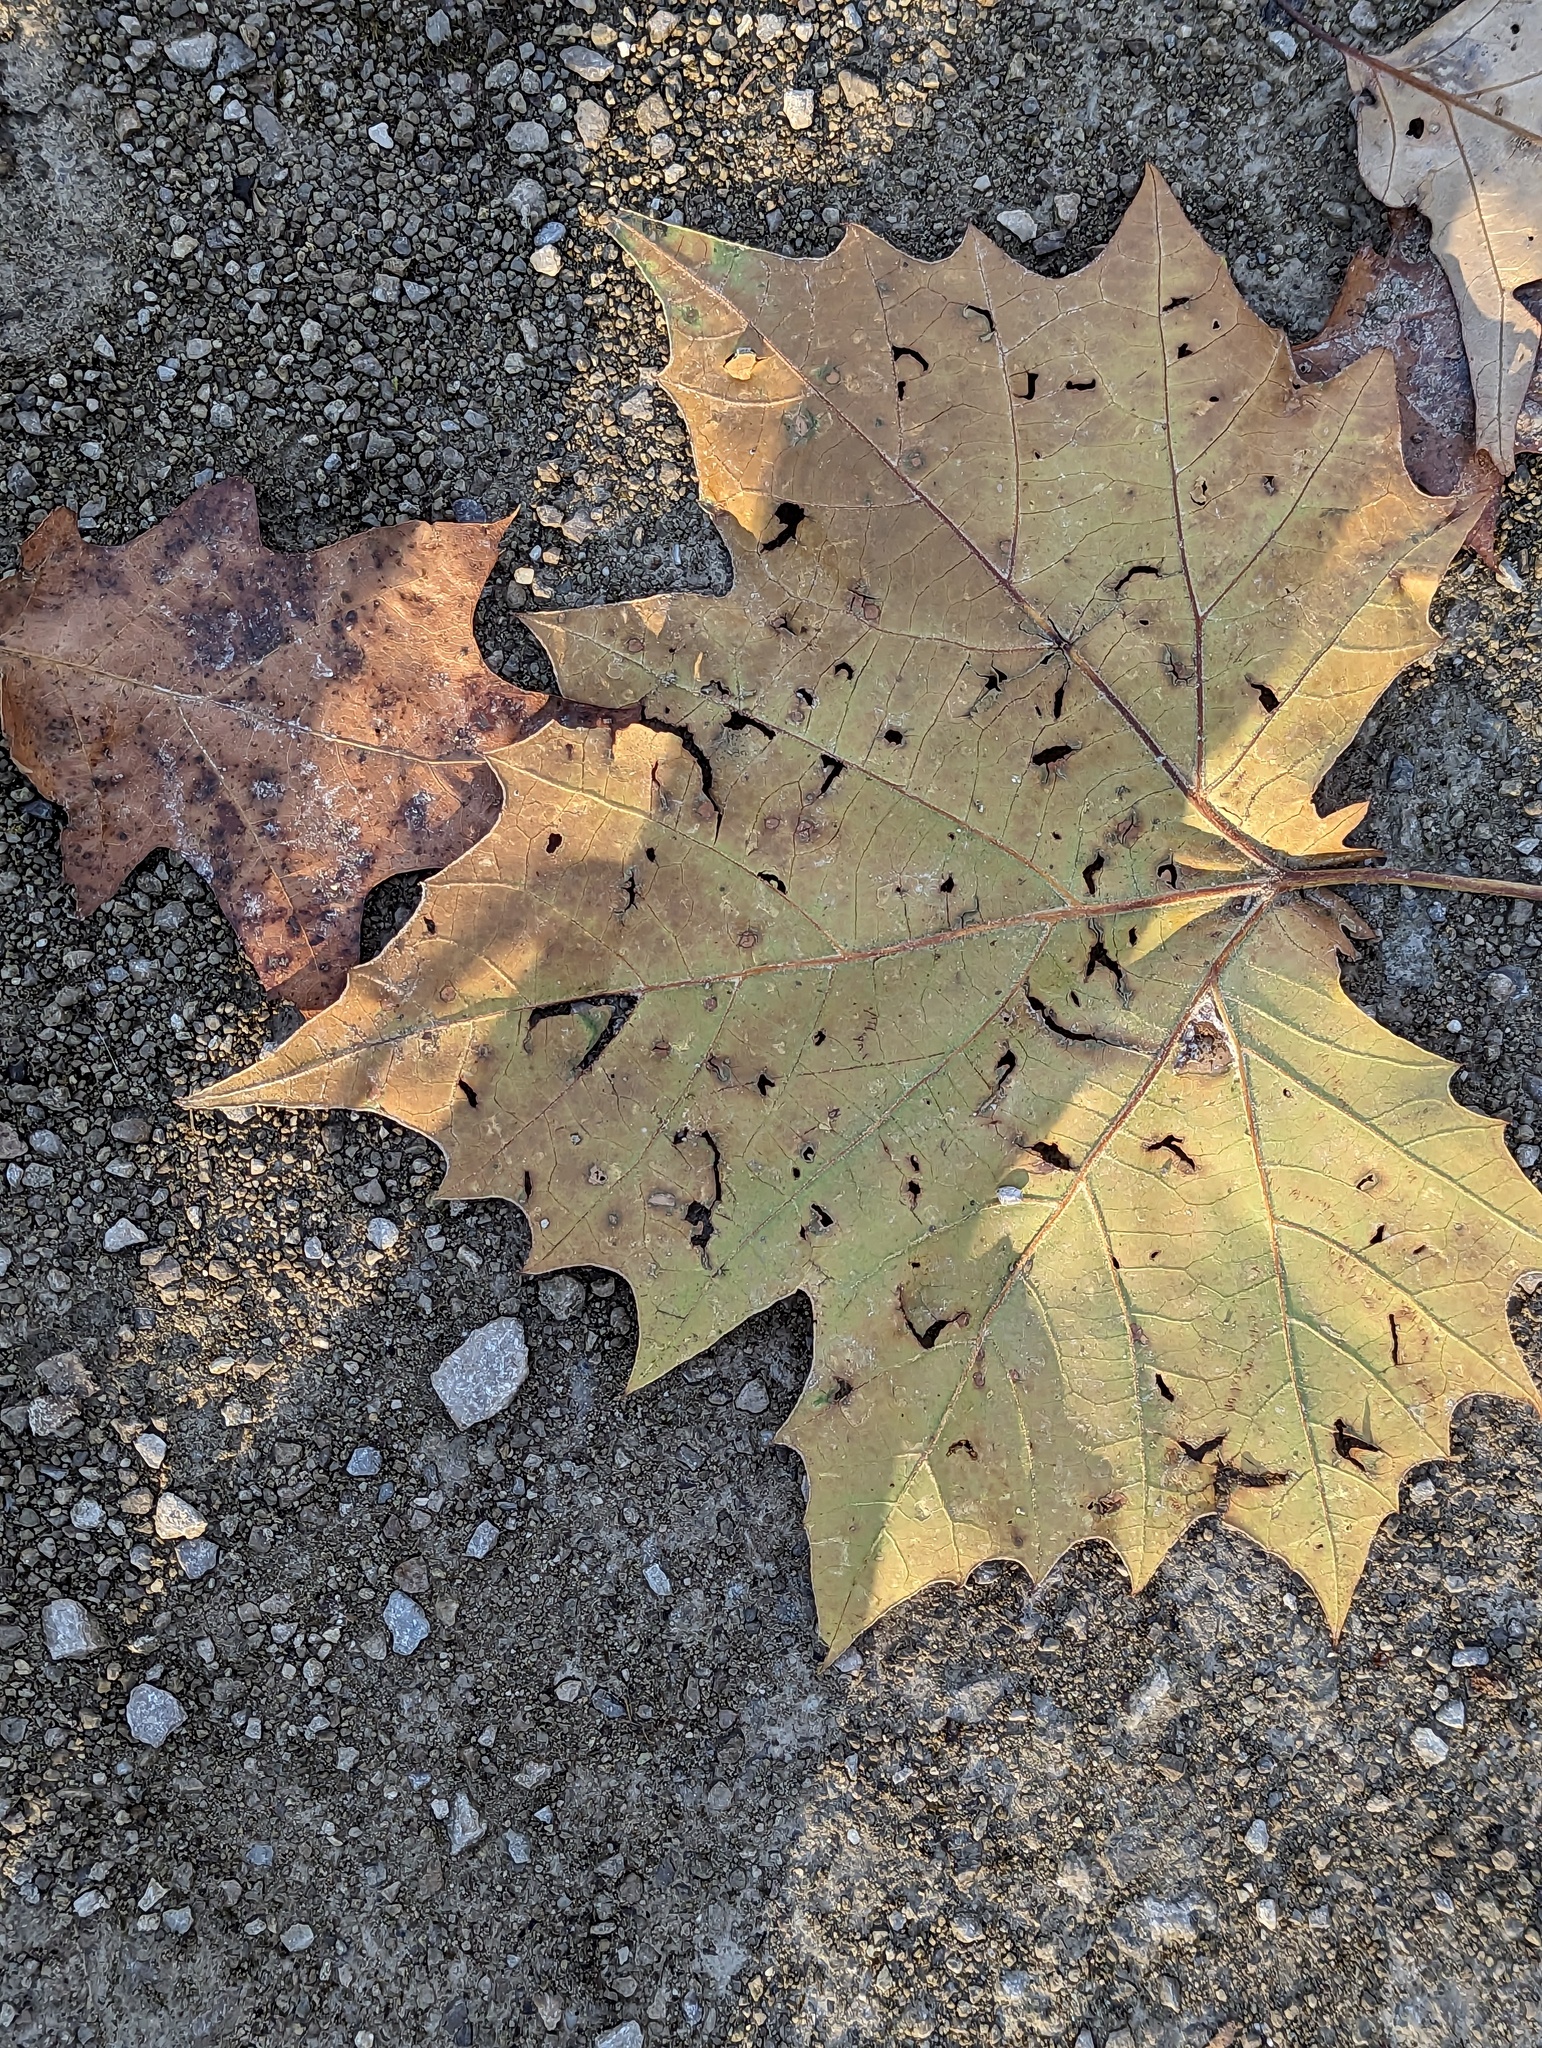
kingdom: Plantae
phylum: Tracheophyta
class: Magnoliopsida
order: Proteales
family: Platanaceae
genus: Platanus
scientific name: Platanus occidentalis
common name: American sycamore
